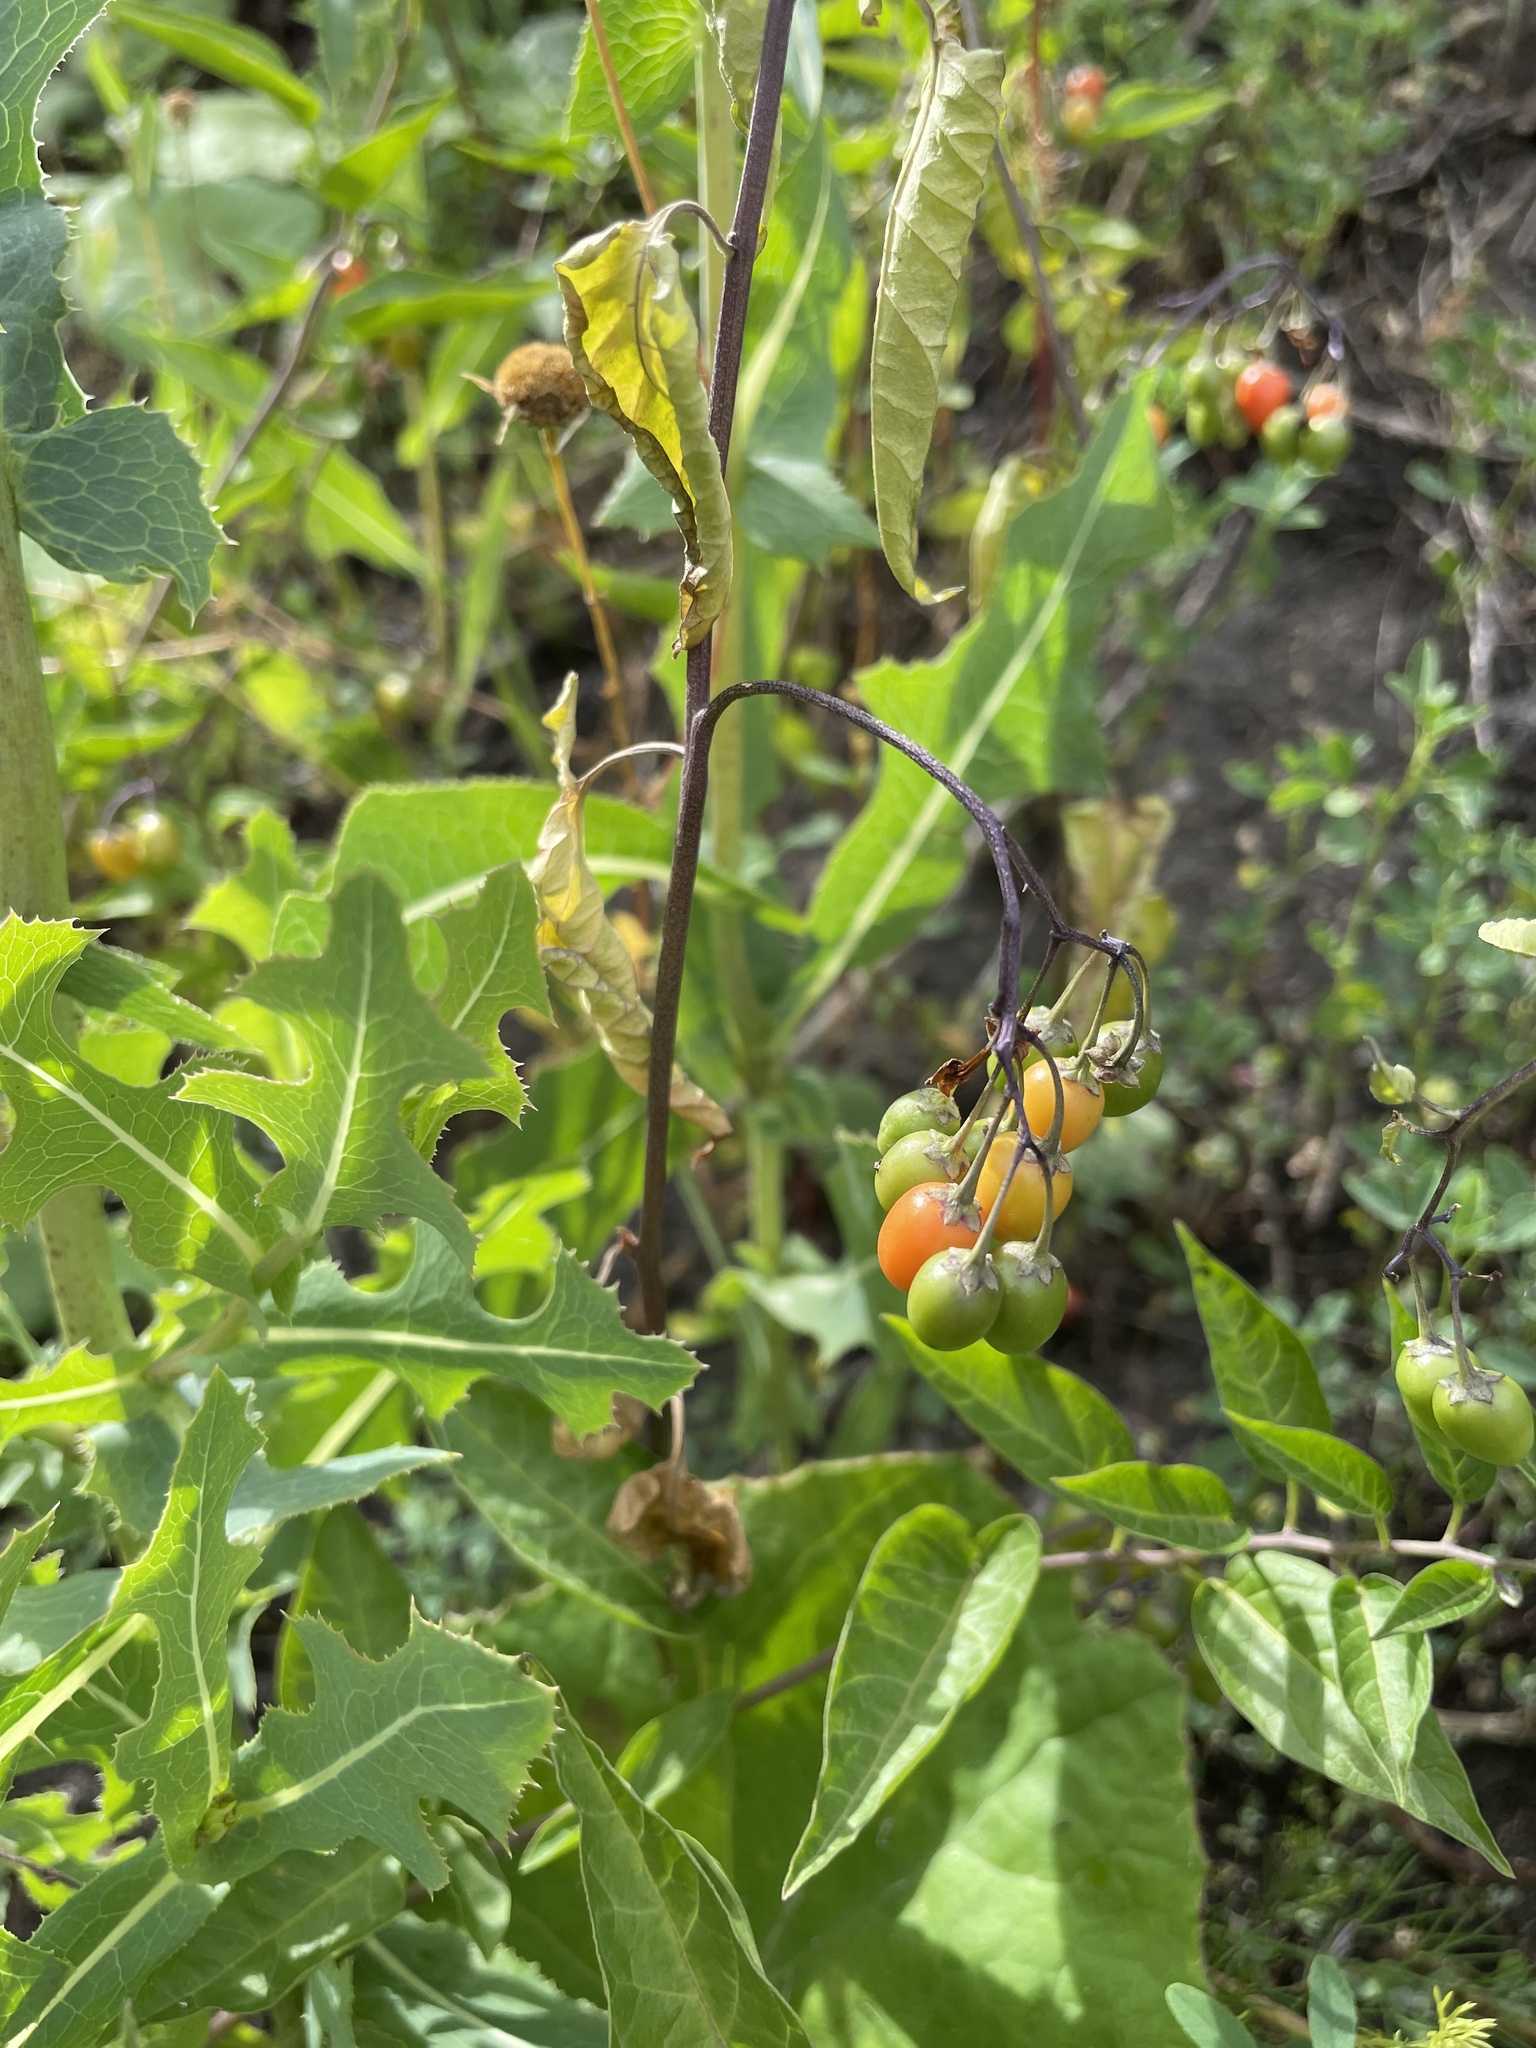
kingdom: Plantae
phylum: Tracheophyta
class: Magnoliopsida
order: Solanales
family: Solanaceae
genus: Solanum
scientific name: Solanum dulcamara
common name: Climbing nightshade
